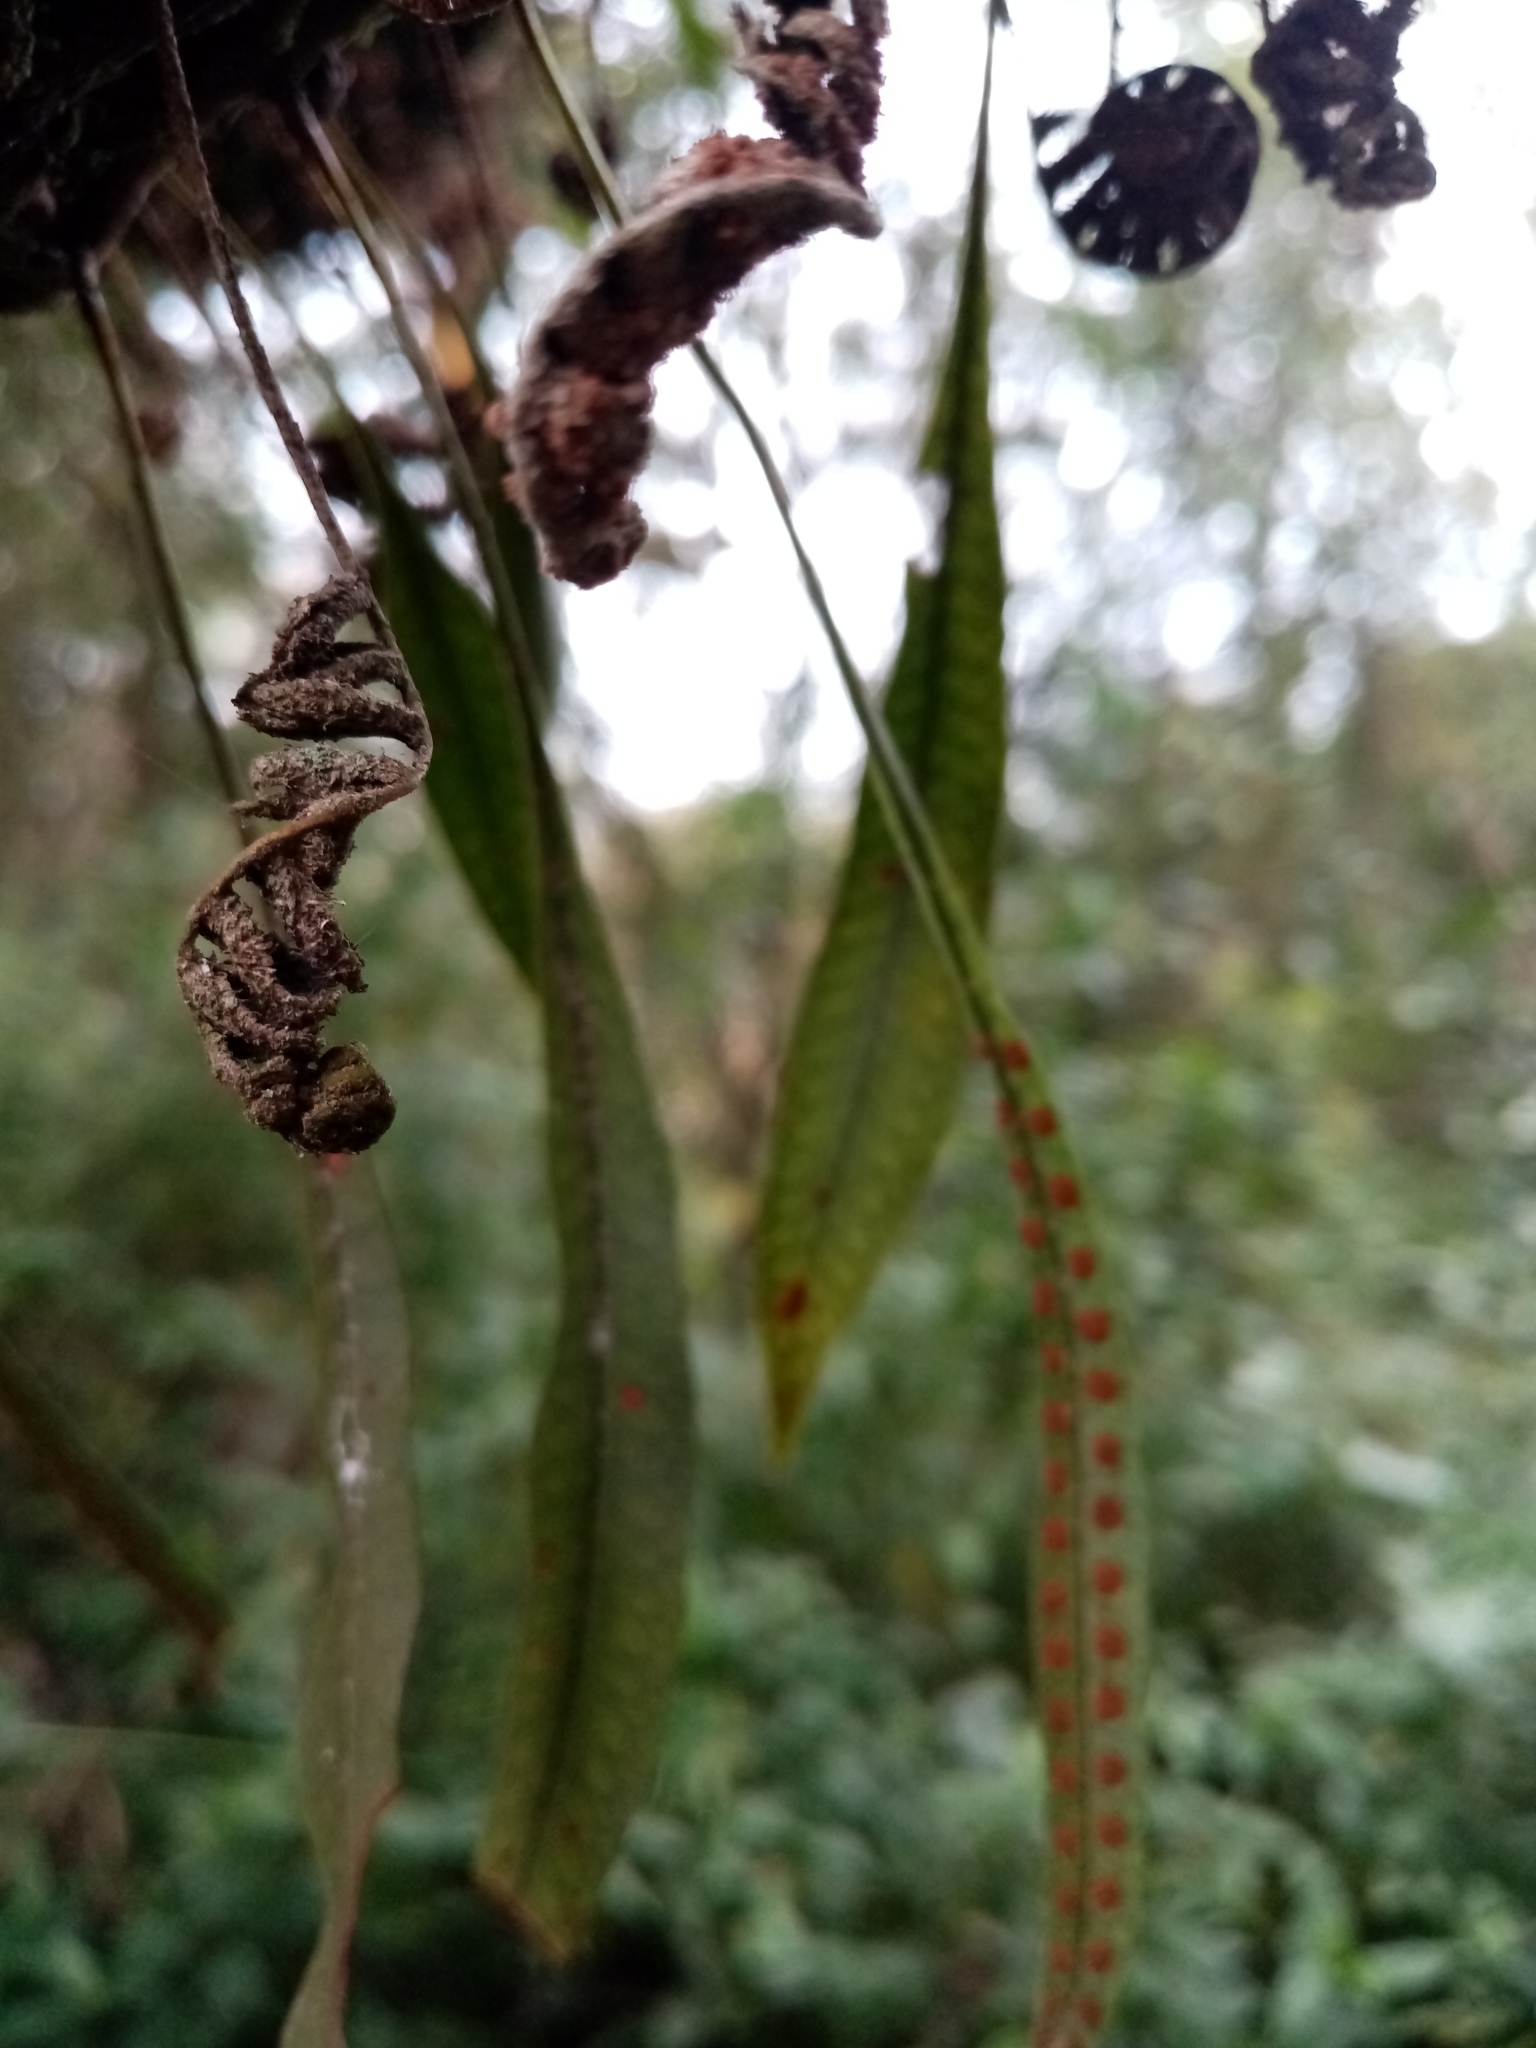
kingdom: Plantae
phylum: Tracheophyta
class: Polypodiopsida
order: Polypodiales
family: Polypodiaceae
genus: Microgramma
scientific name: Microgramma squamulosa
